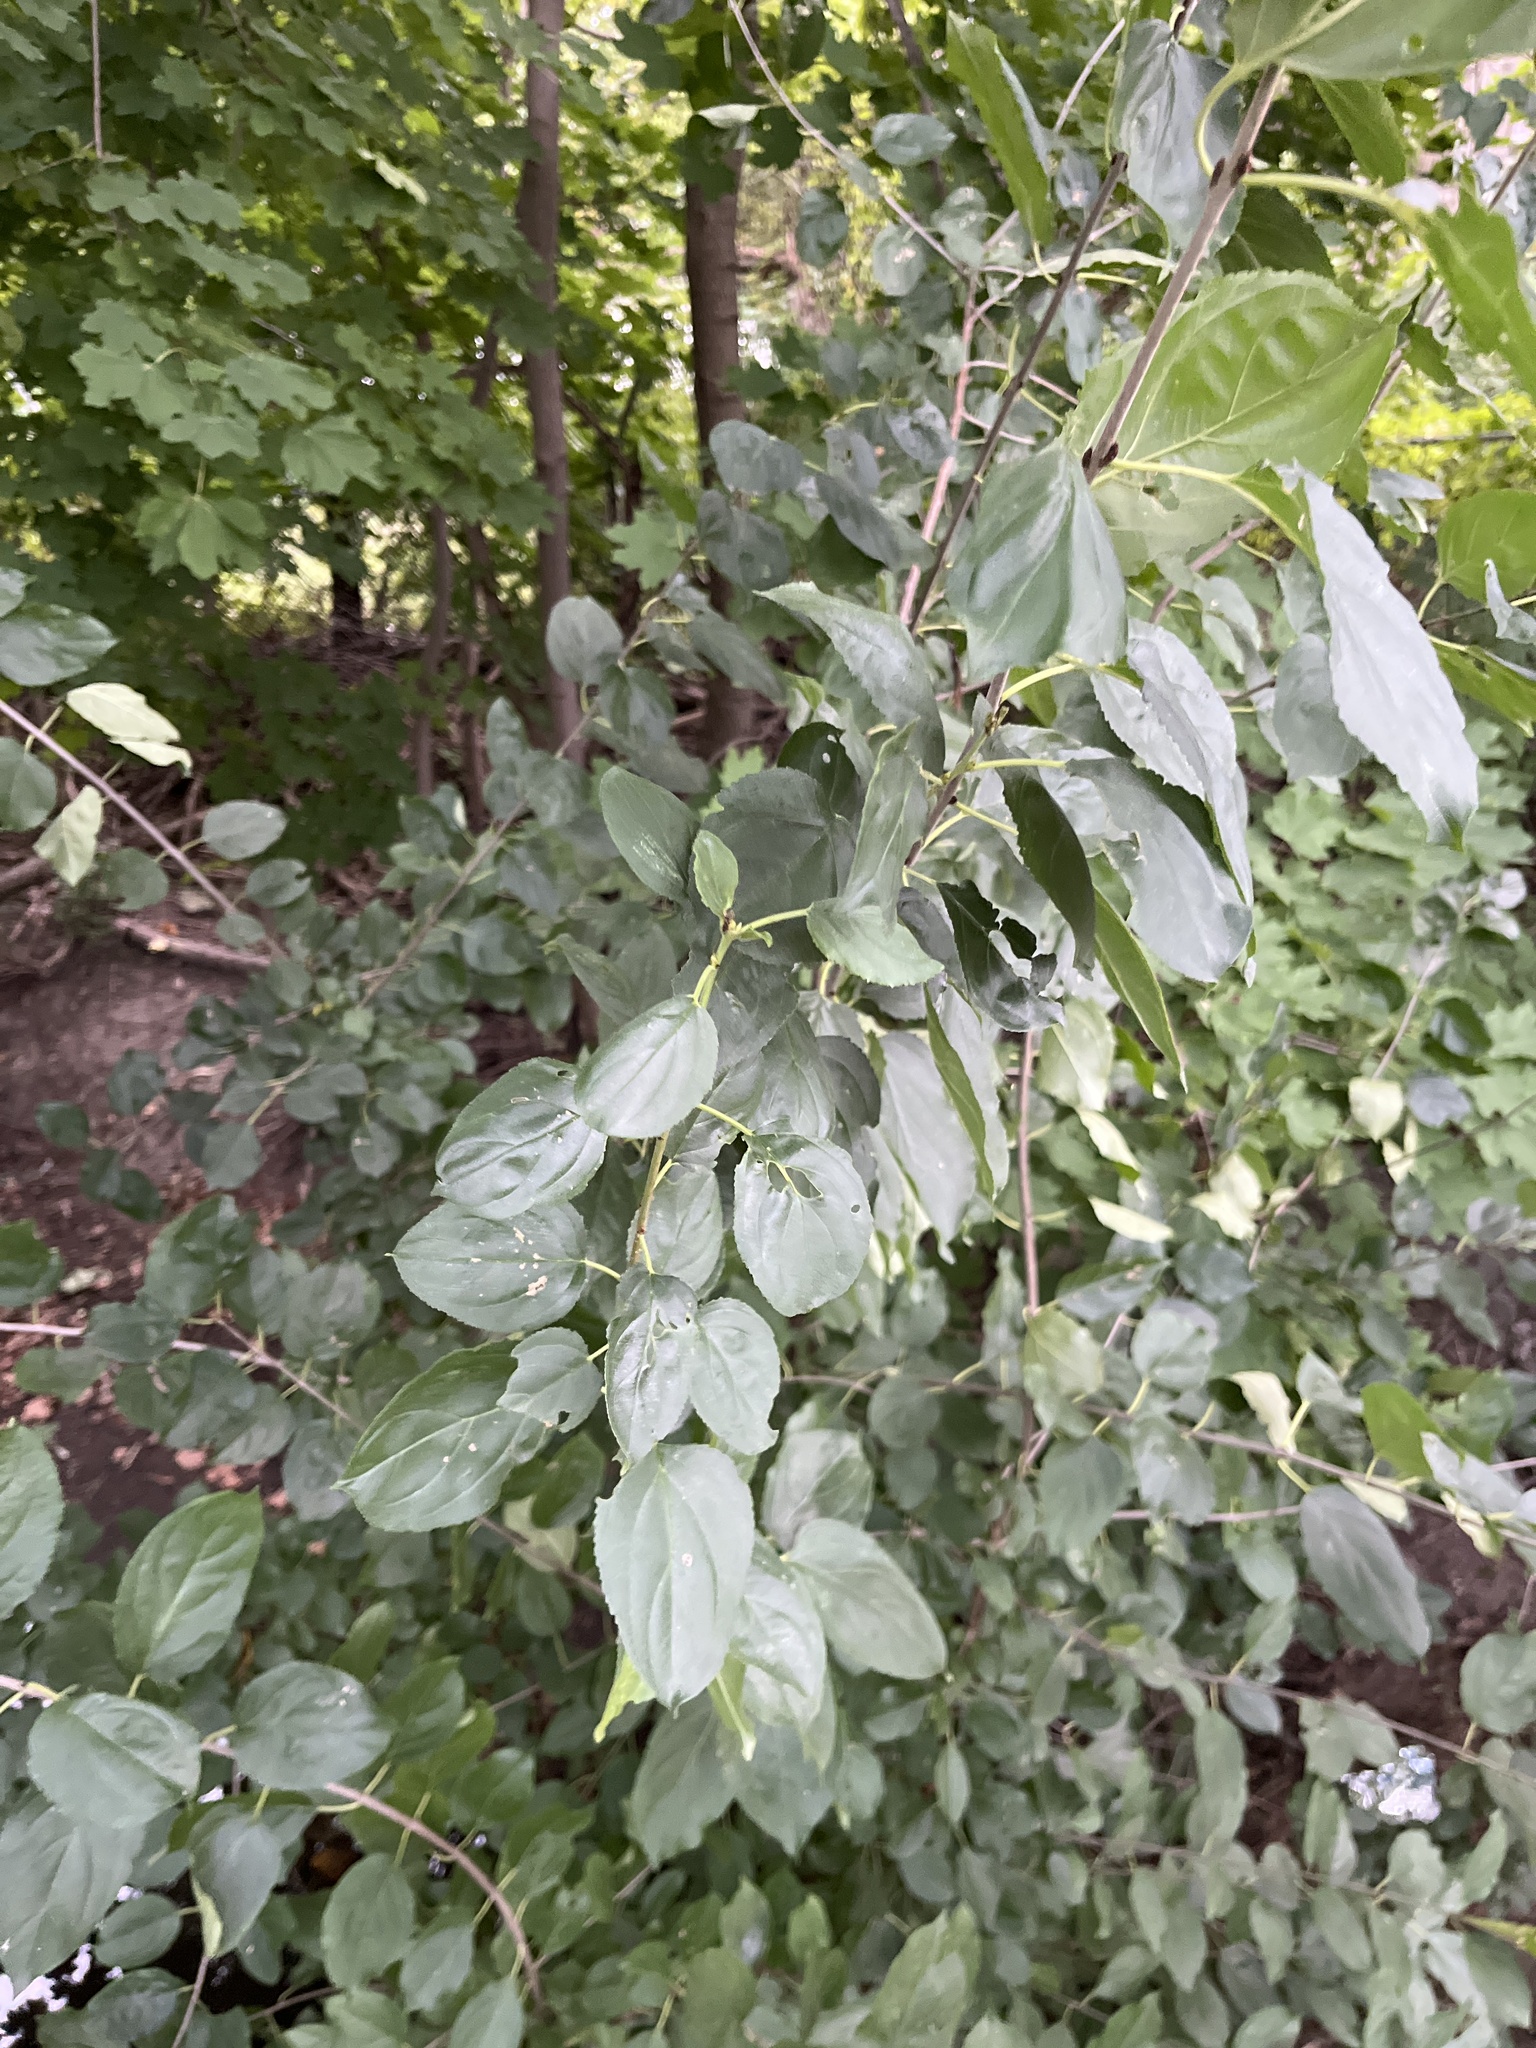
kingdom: Plantae
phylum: Tracheophyta
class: Magnoliopsida
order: Rosales
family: Rhamnaceae
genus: Rhamnus
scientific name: Rhamnus cathartica
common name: Common buckthorn
